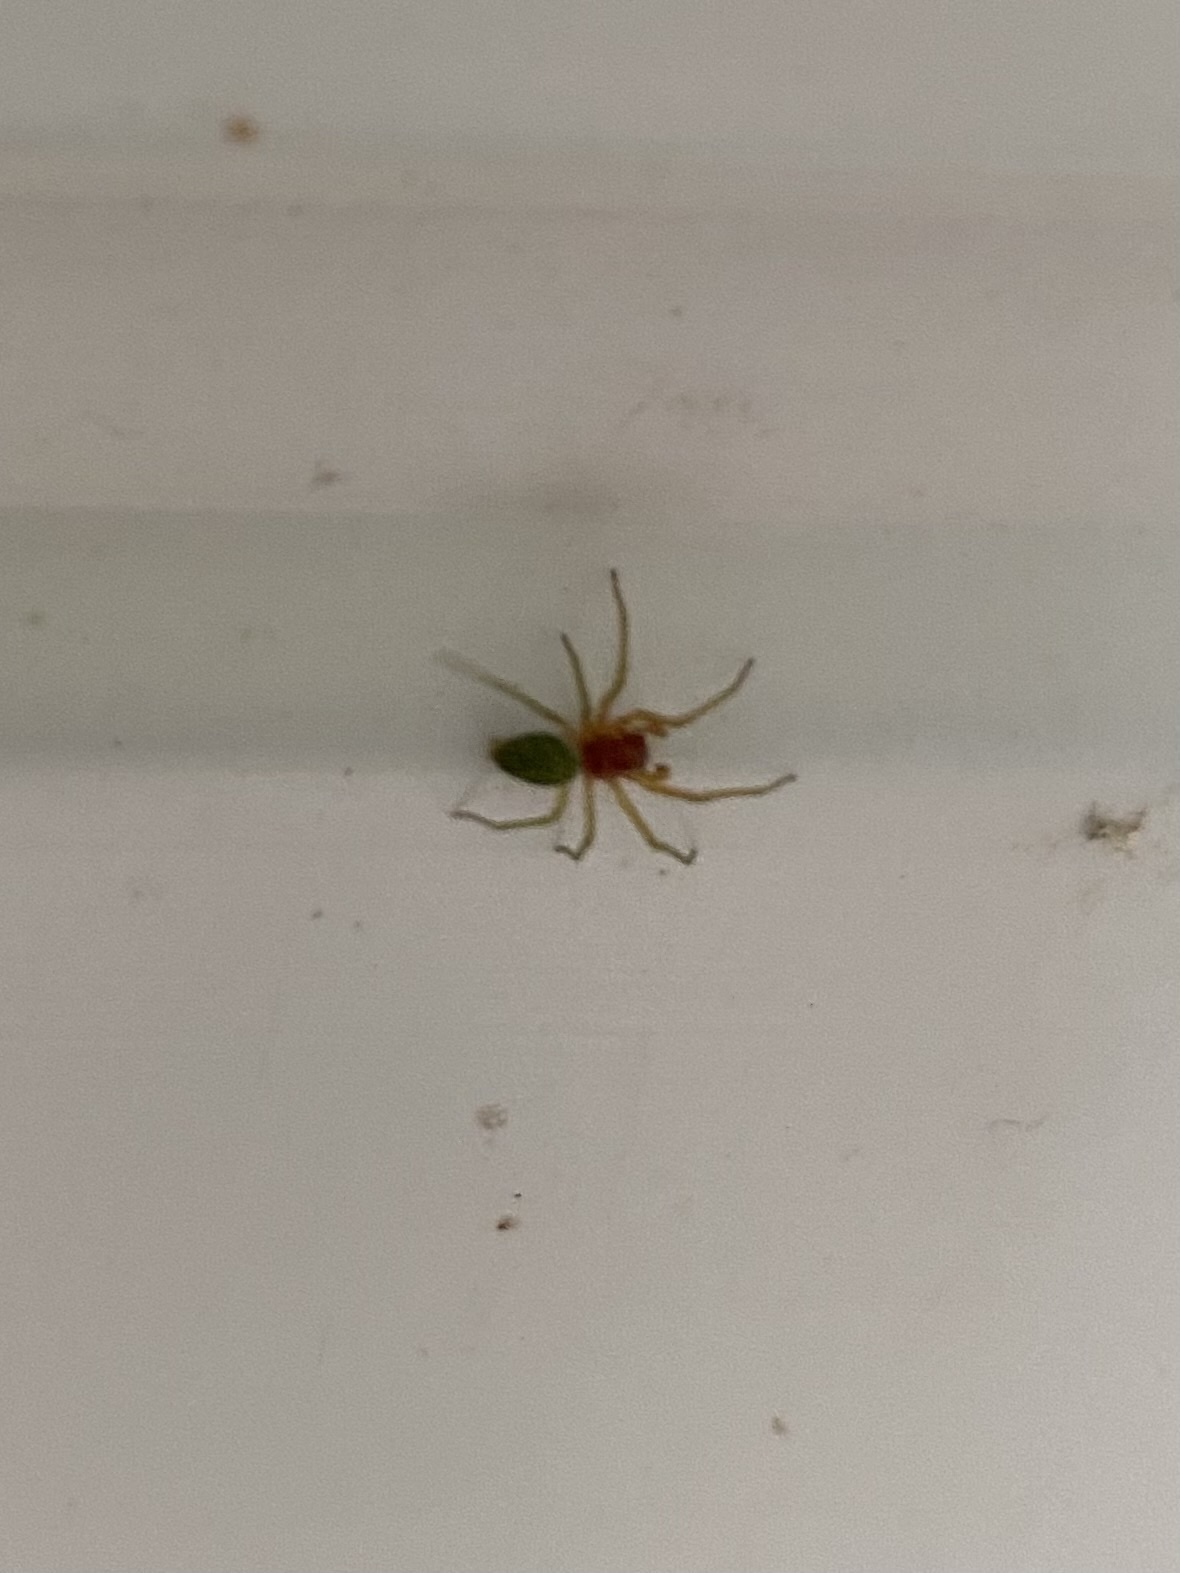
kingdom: Animalia
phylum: Arthropoda
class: Arachnida
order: Araneae
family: Dictynidae
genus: Nigma
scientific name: Nigma walckenaeri
